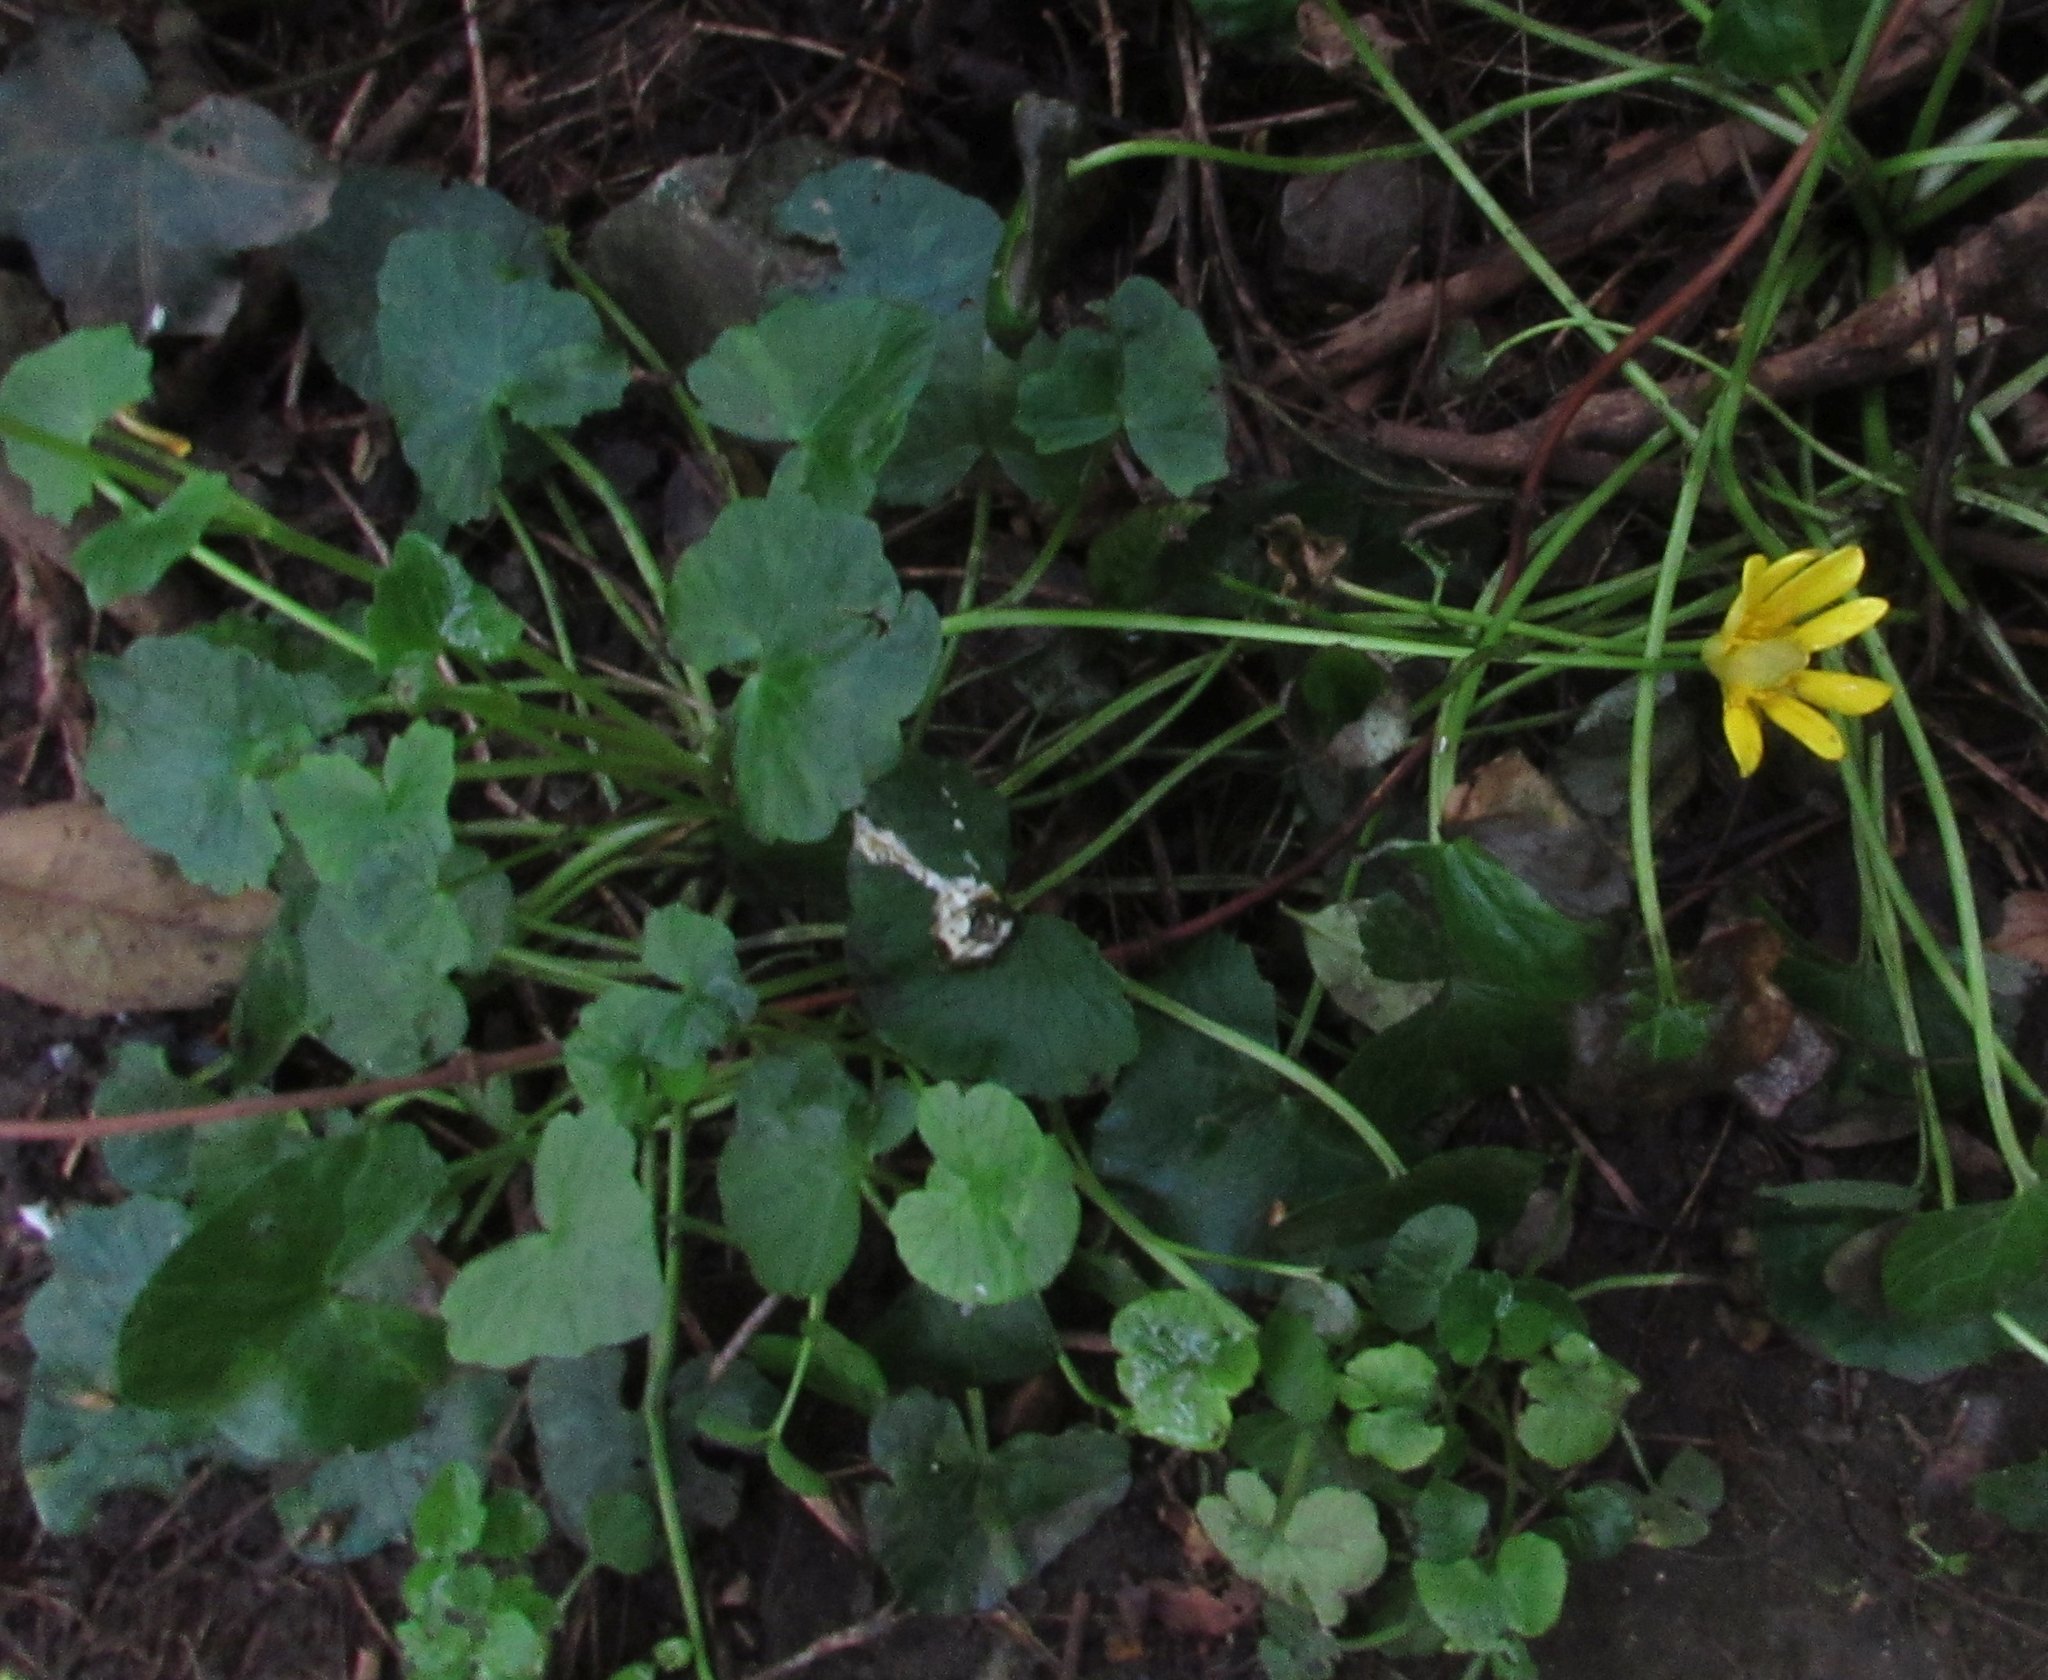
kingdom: Plantae
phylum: Tracheophyta
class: Magnoliopsida
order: Ranunculales
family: Ranunculaceae
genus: Ficaria
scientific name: Ficaria verna
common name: Lesser celandine
